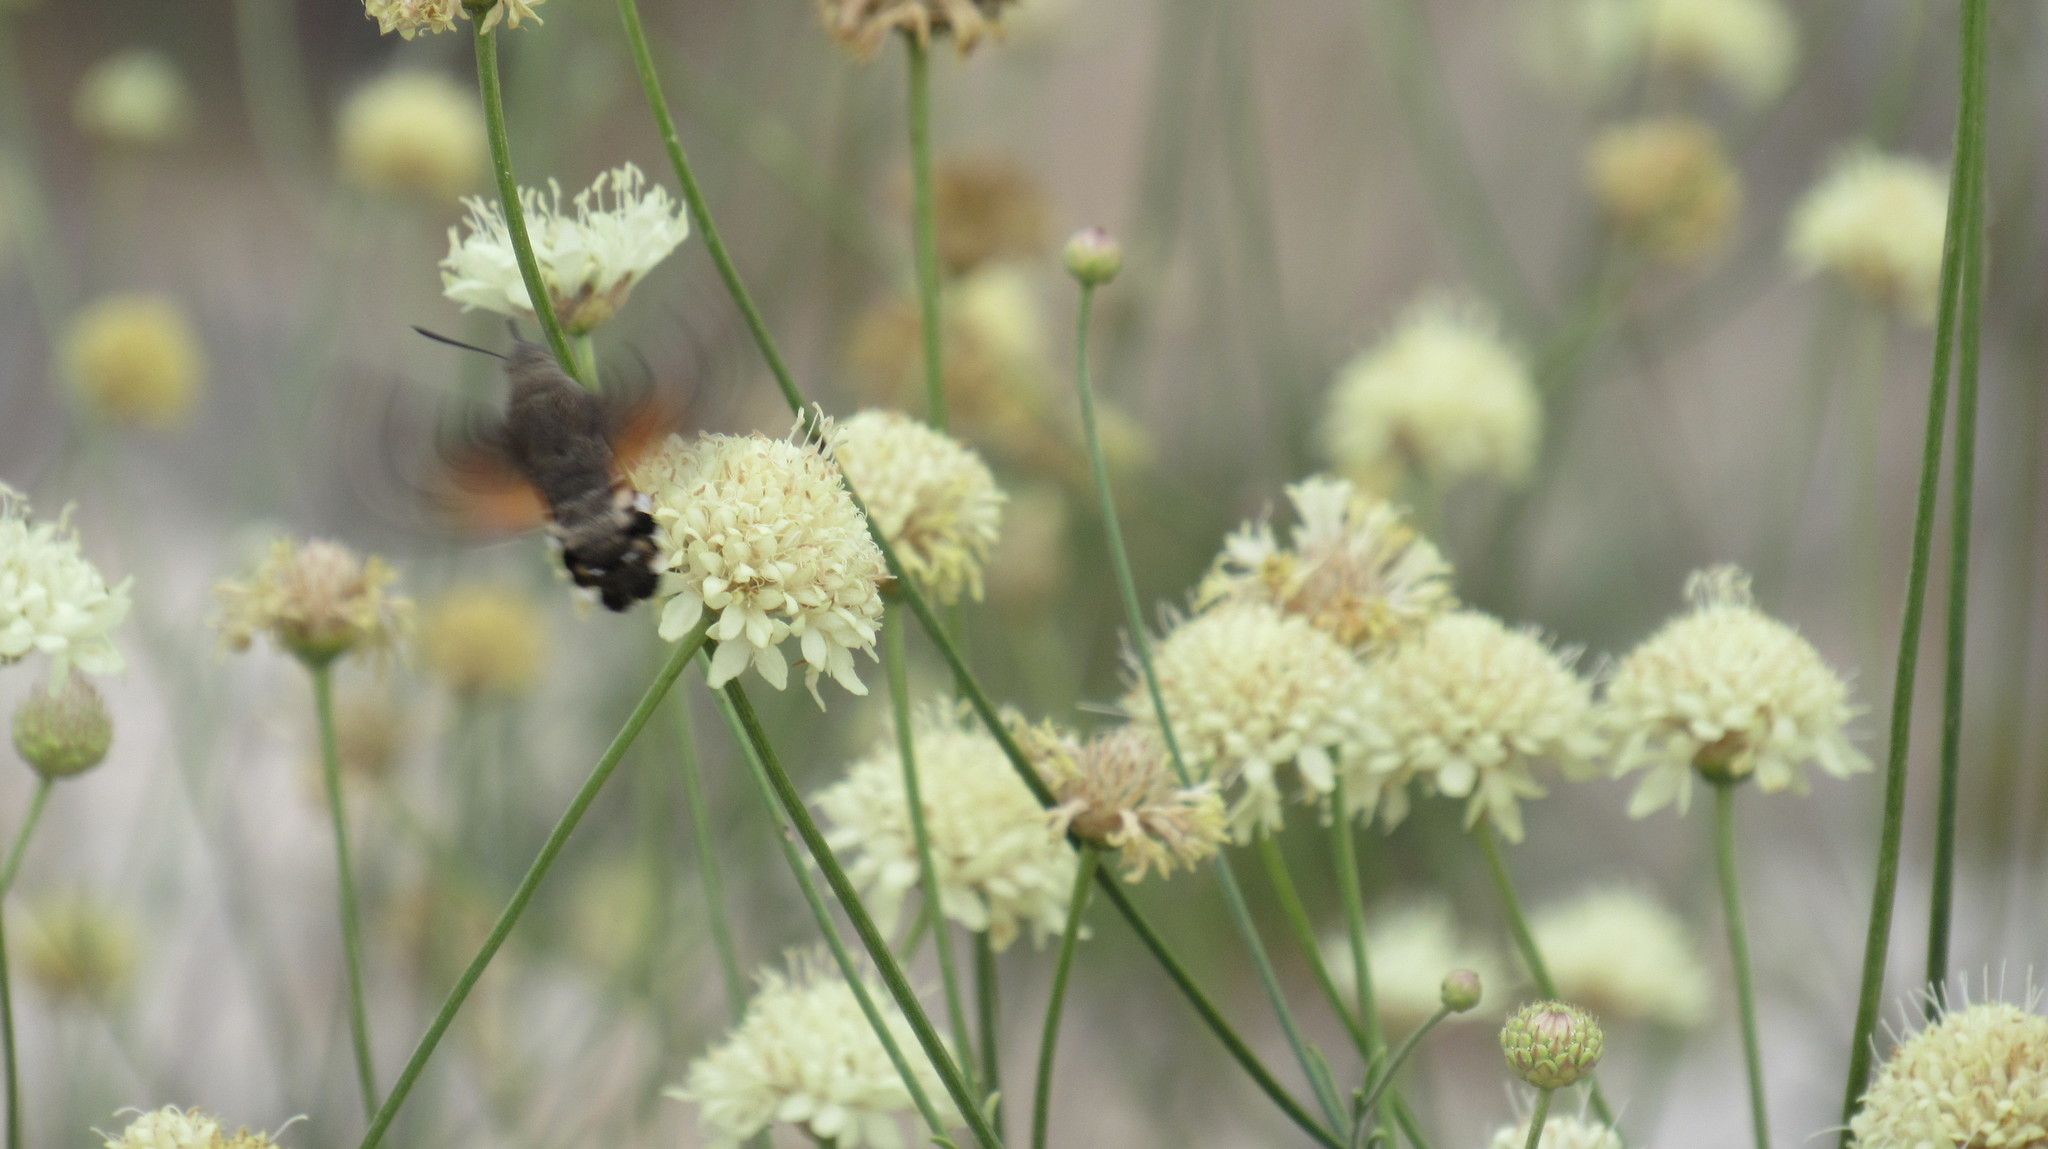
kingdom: Animalia
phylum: Arthropoda
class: Insecta
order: Lepidoptera
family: Sphingidae
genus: Macroglossum
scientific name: Macroglossum stellatarum
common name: Humming-bird hawk-moth
